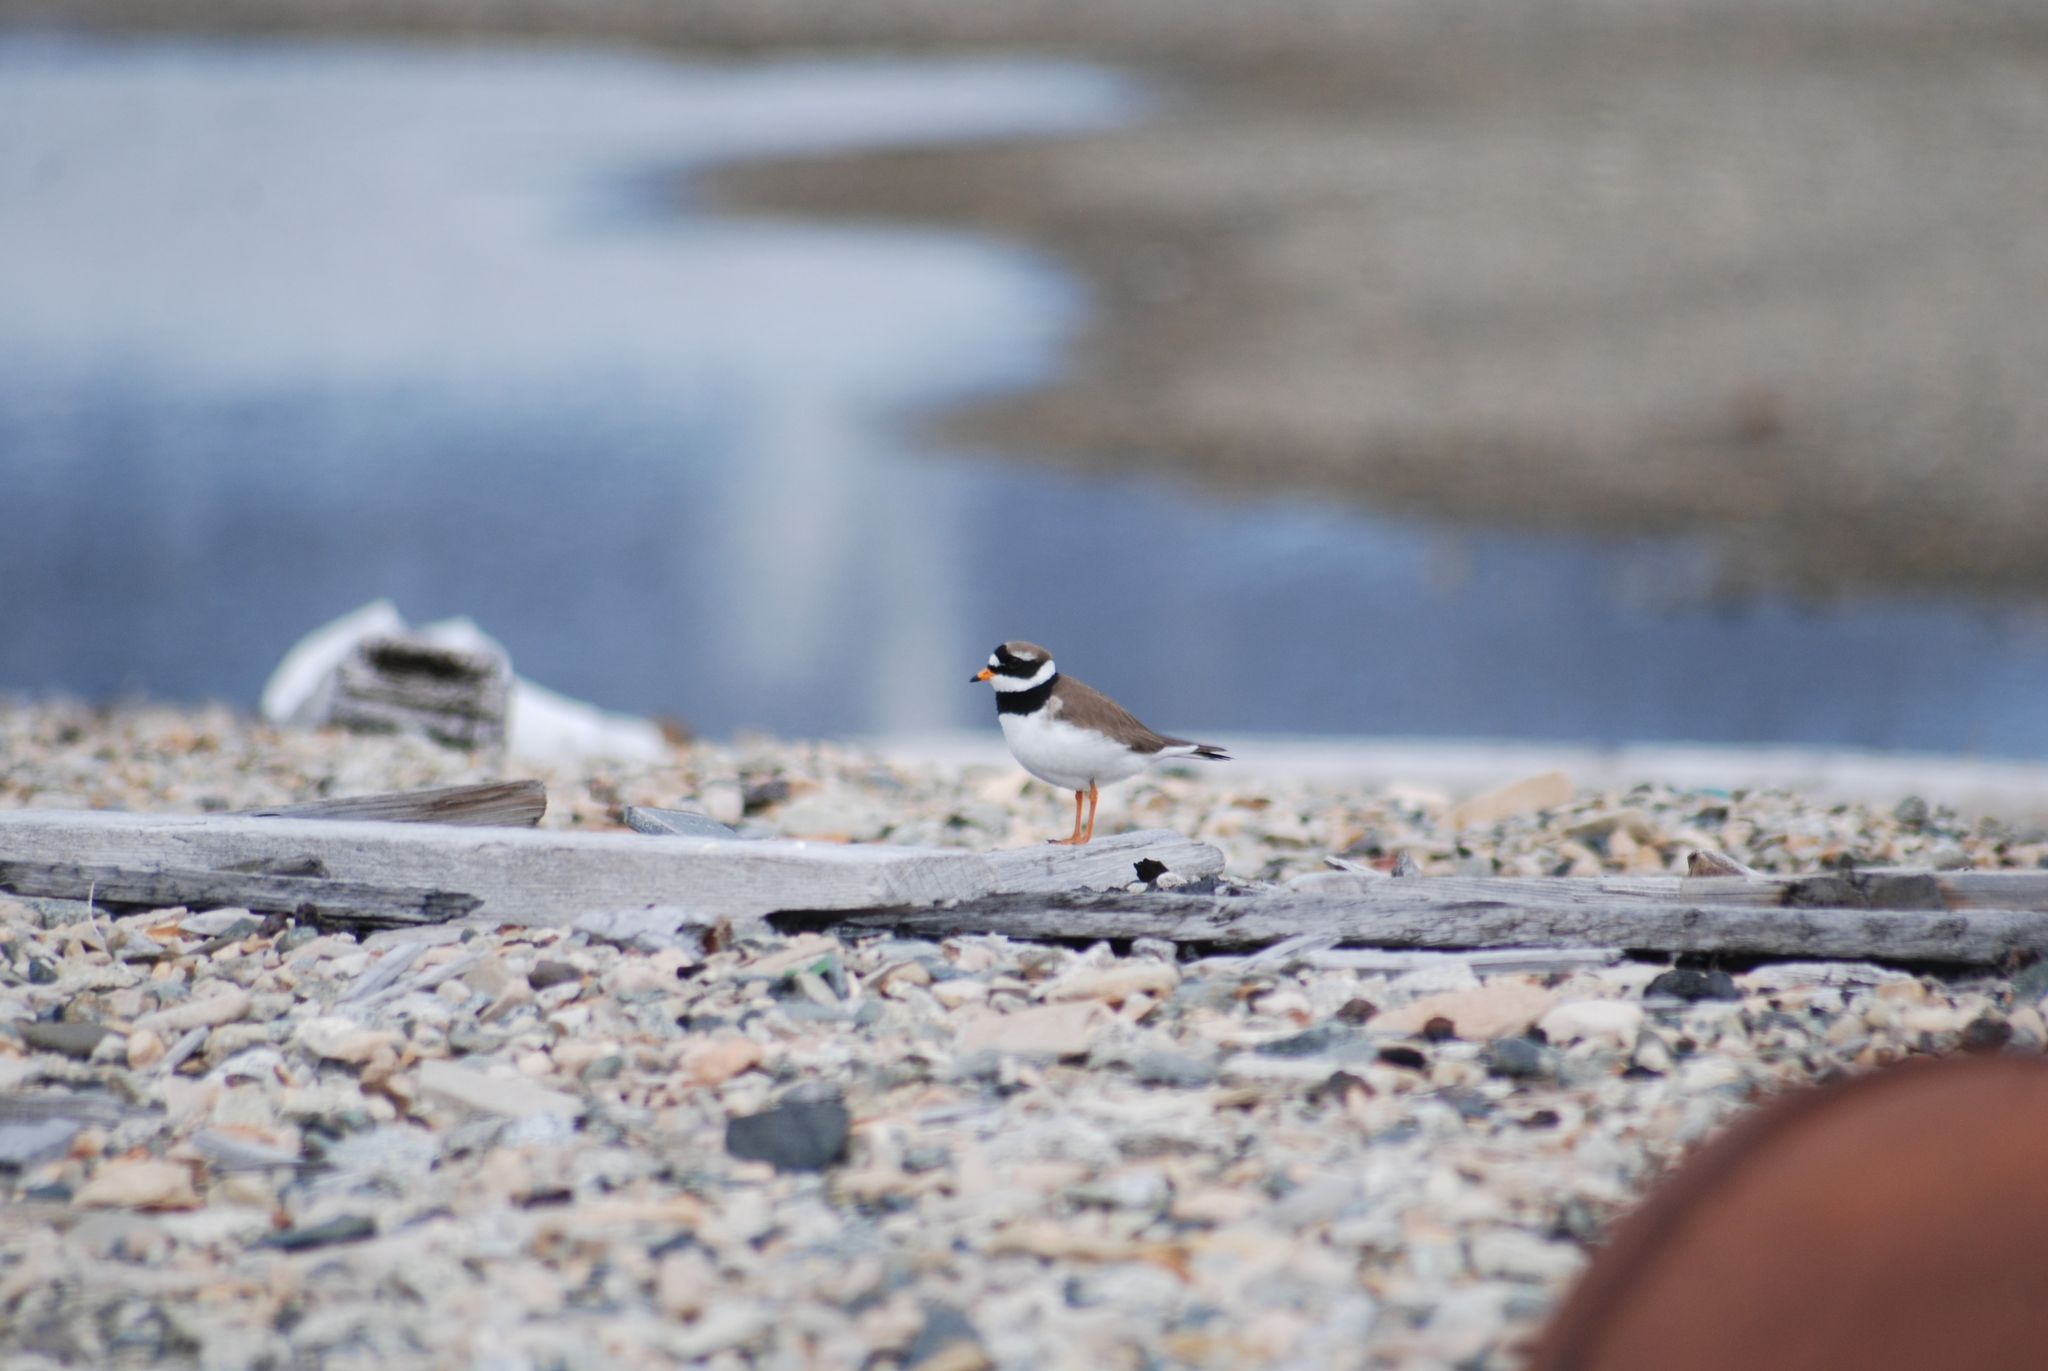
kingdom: Animalia
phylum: Chordata
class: Aves
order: Charadriiformes
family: Charadriidae
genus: Charadrius
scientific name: Charadrius hiaticula
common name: Common ringed plover
